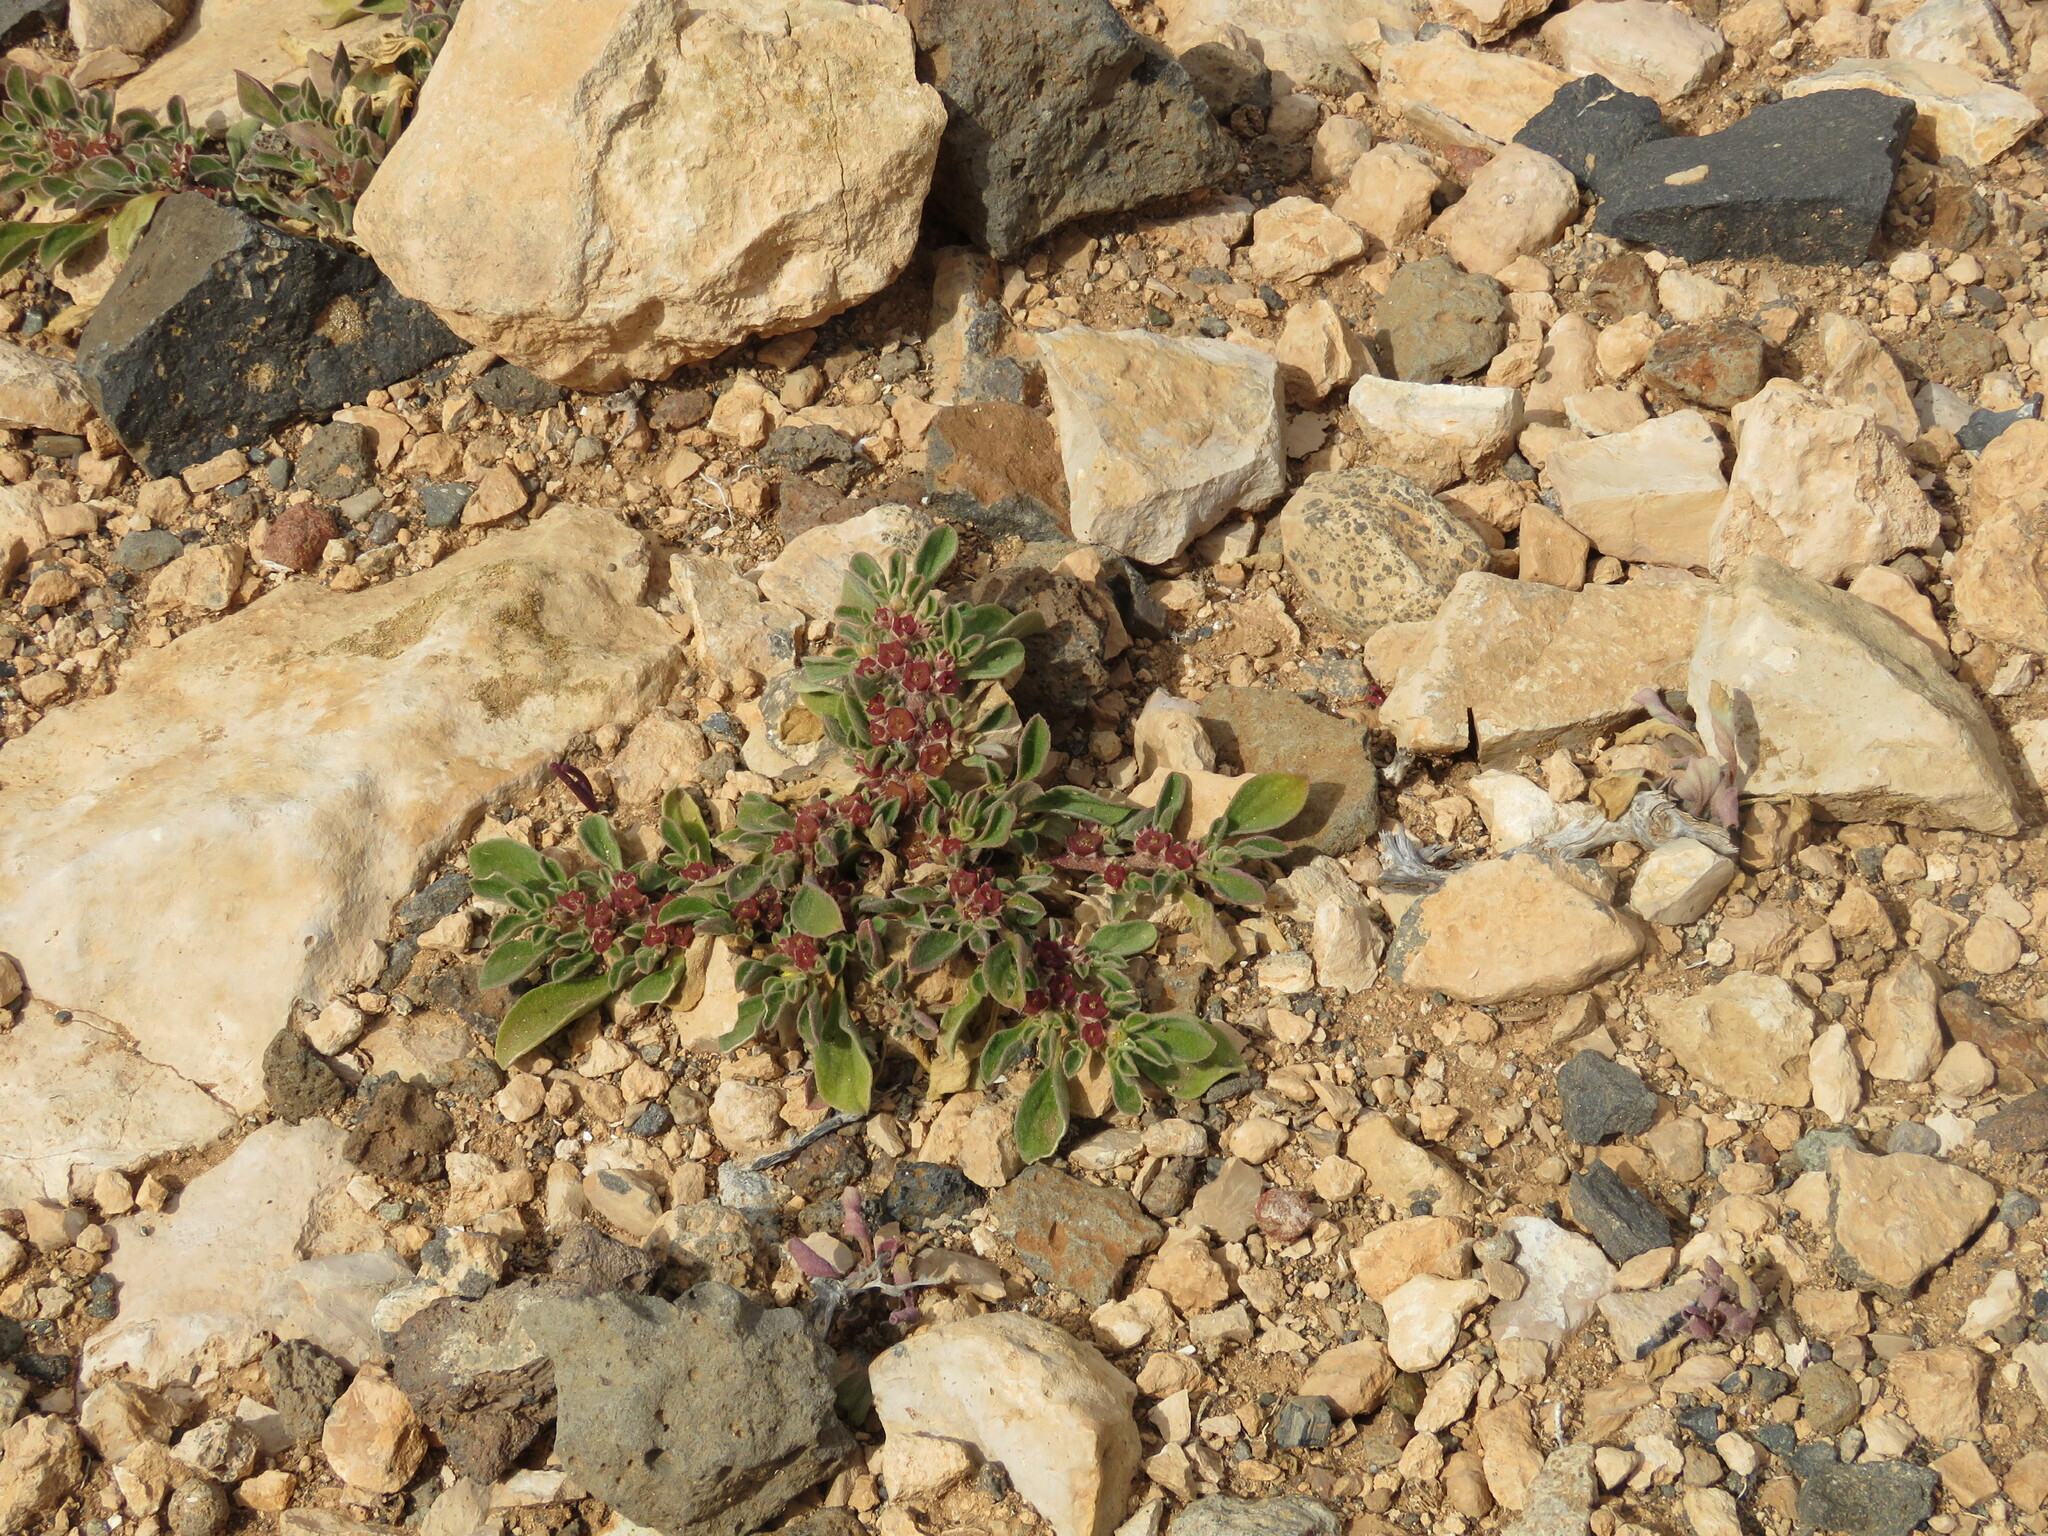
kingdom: Plantae
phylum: Tracheophyta
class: Magnoliopsida
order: Caryophyllales
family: Aizoaceae
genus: Aizoon
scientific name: Aizoon canariense
